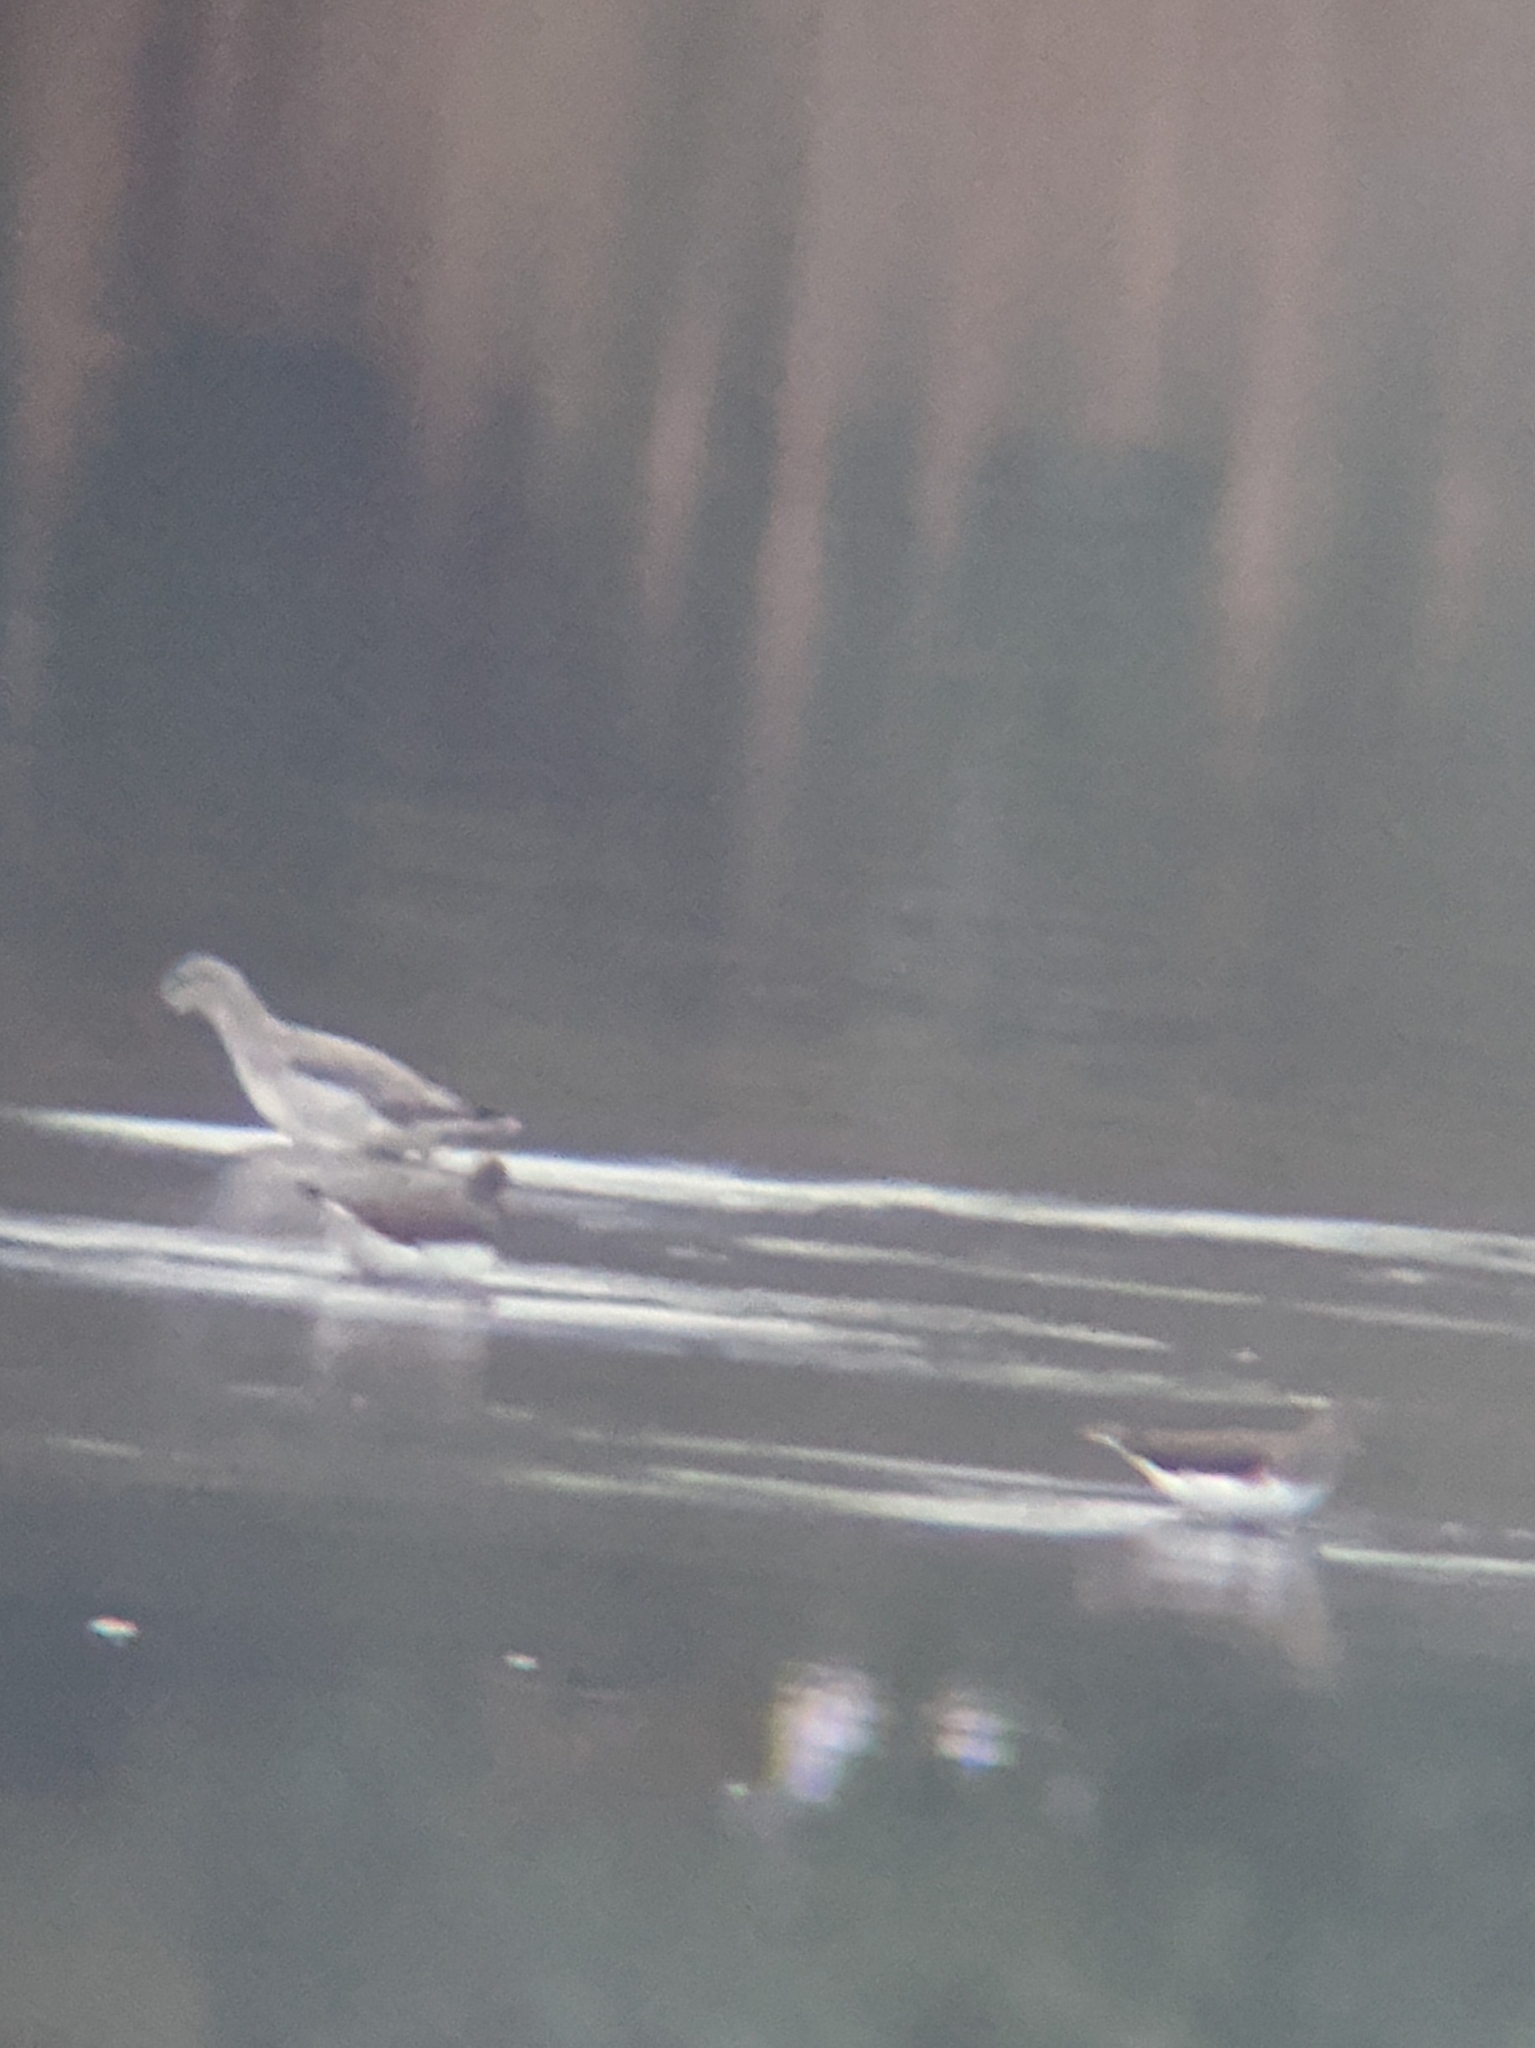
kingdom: Animalia
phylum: Chordata
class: Aves
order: Charadriiformes
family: Scolopacidae
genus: Tringa
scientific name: Tringa nebularia
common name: Common greenshank
